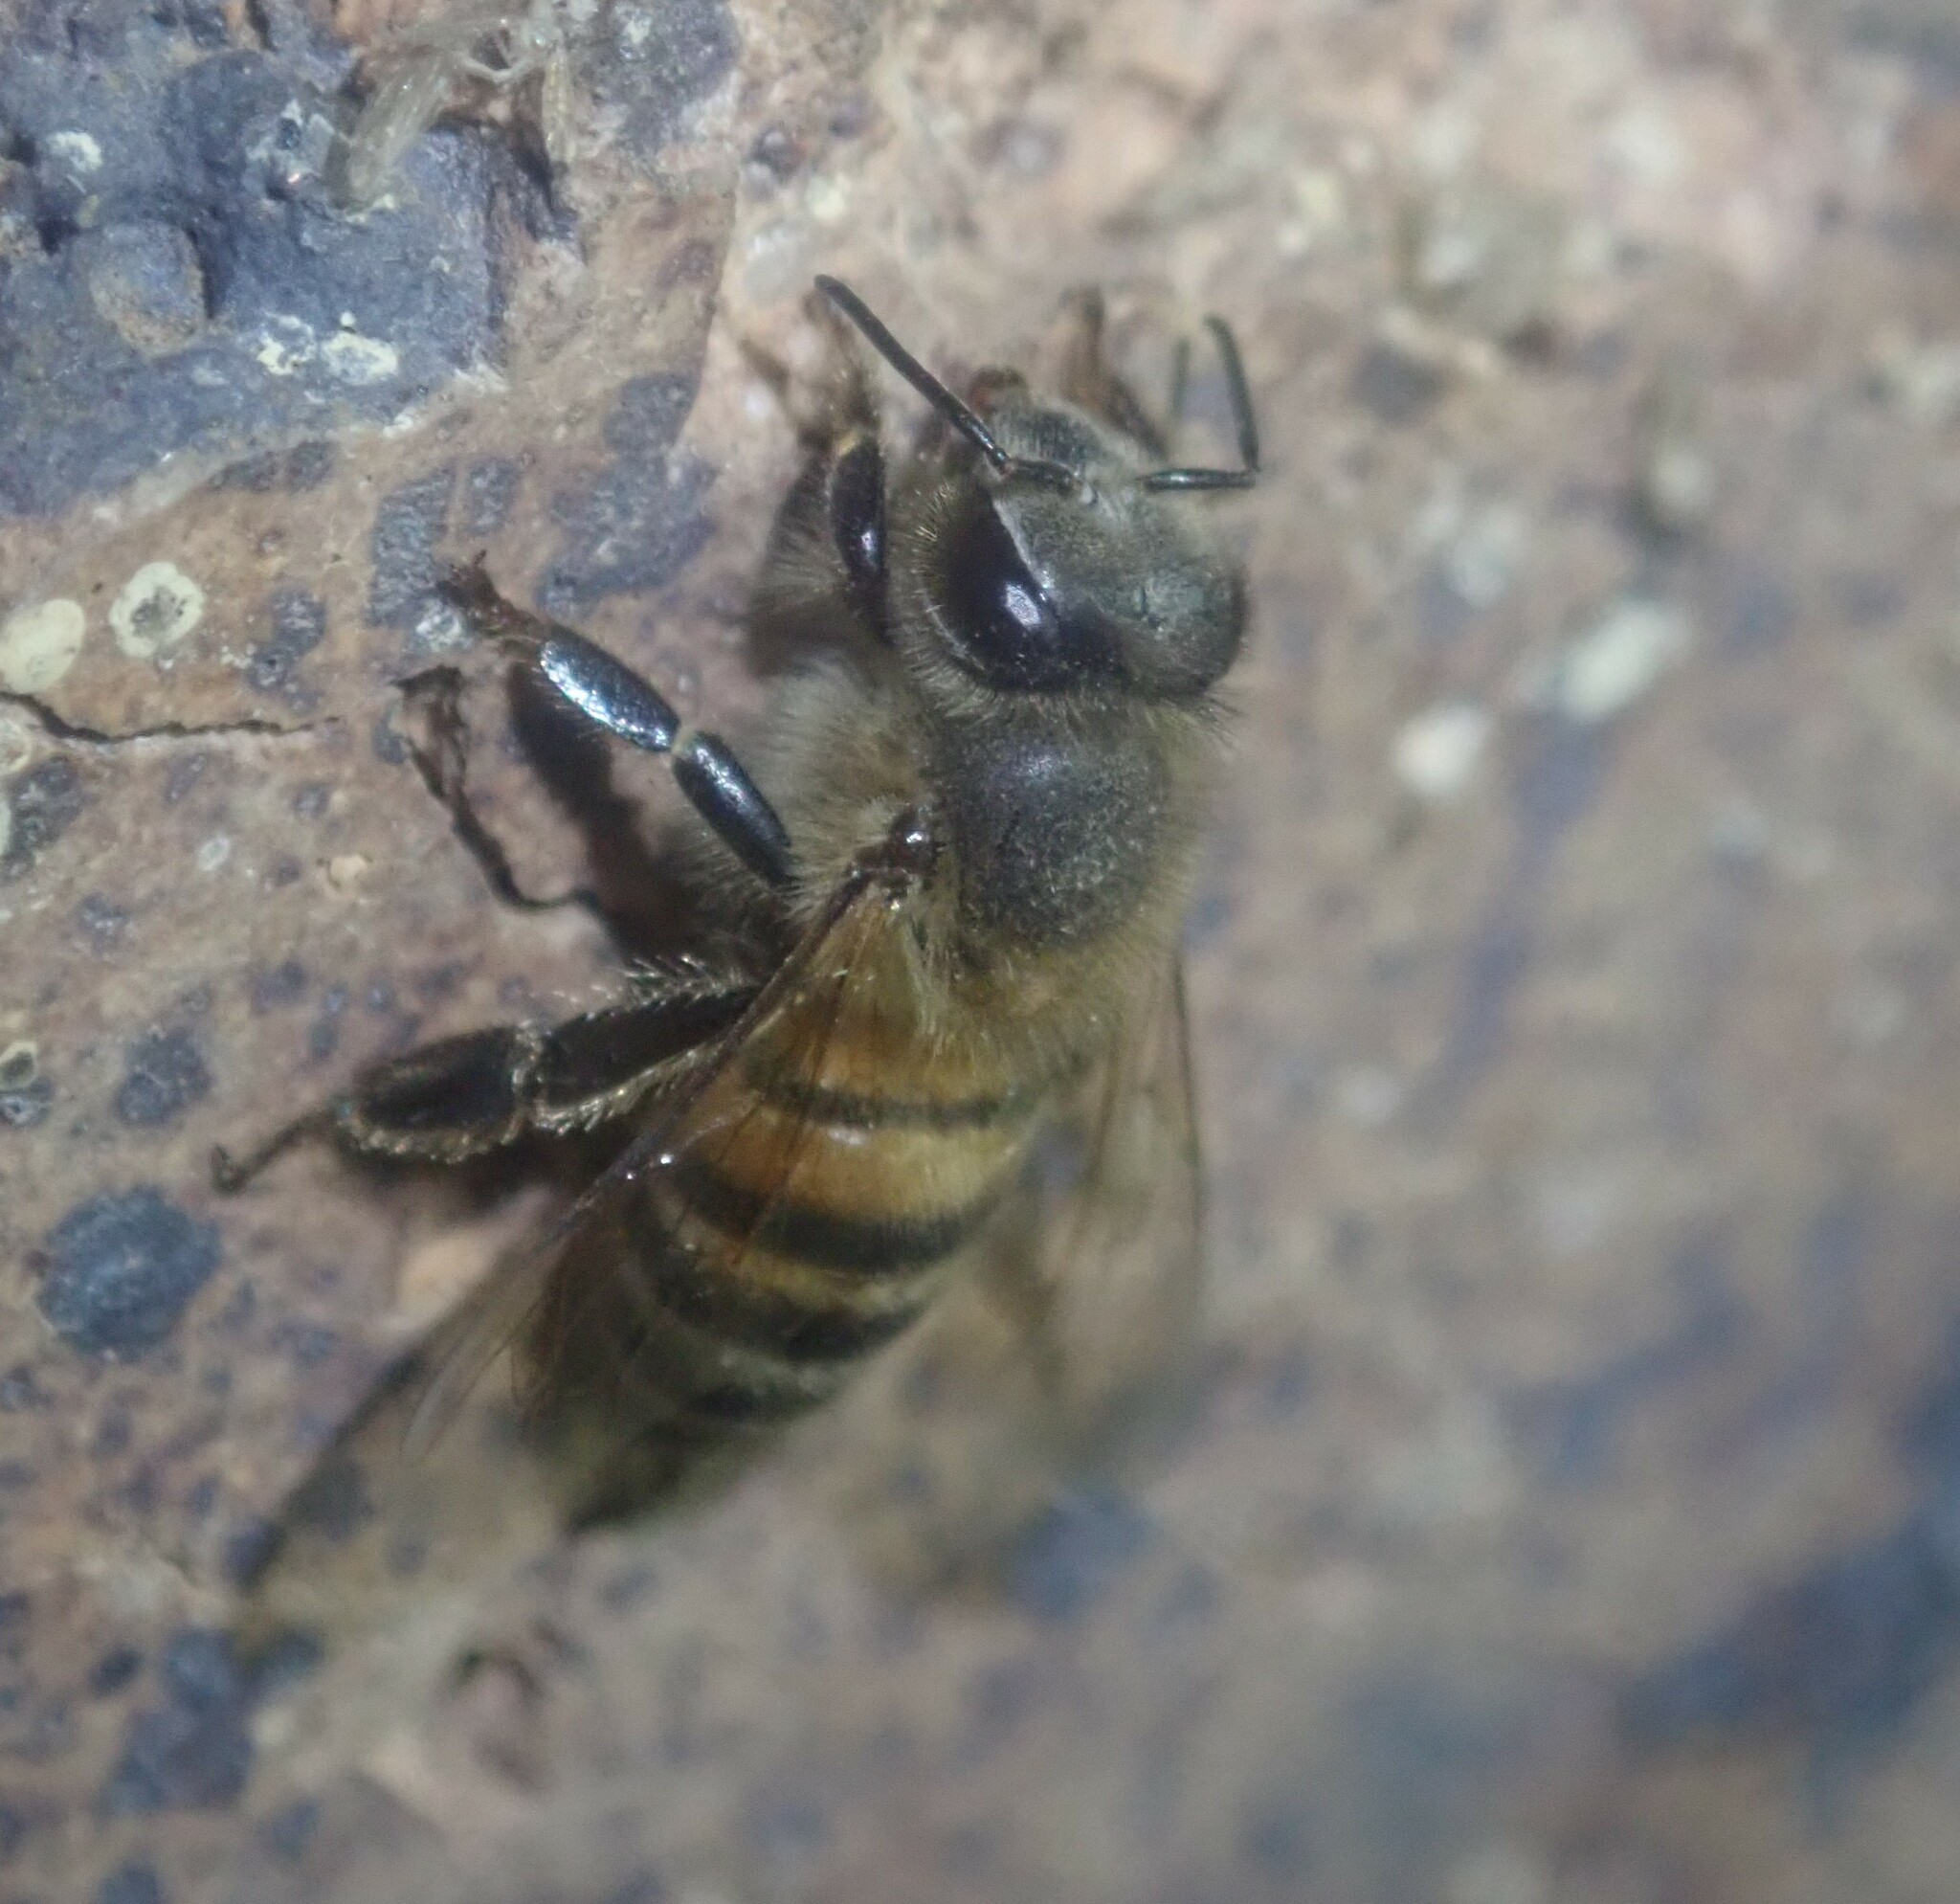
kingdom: Animalia
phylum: Arthropoda
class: Insecta
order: Hymenoptera
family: Apidae
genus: Apis
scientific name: Apis mellifera
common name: Honey bee
